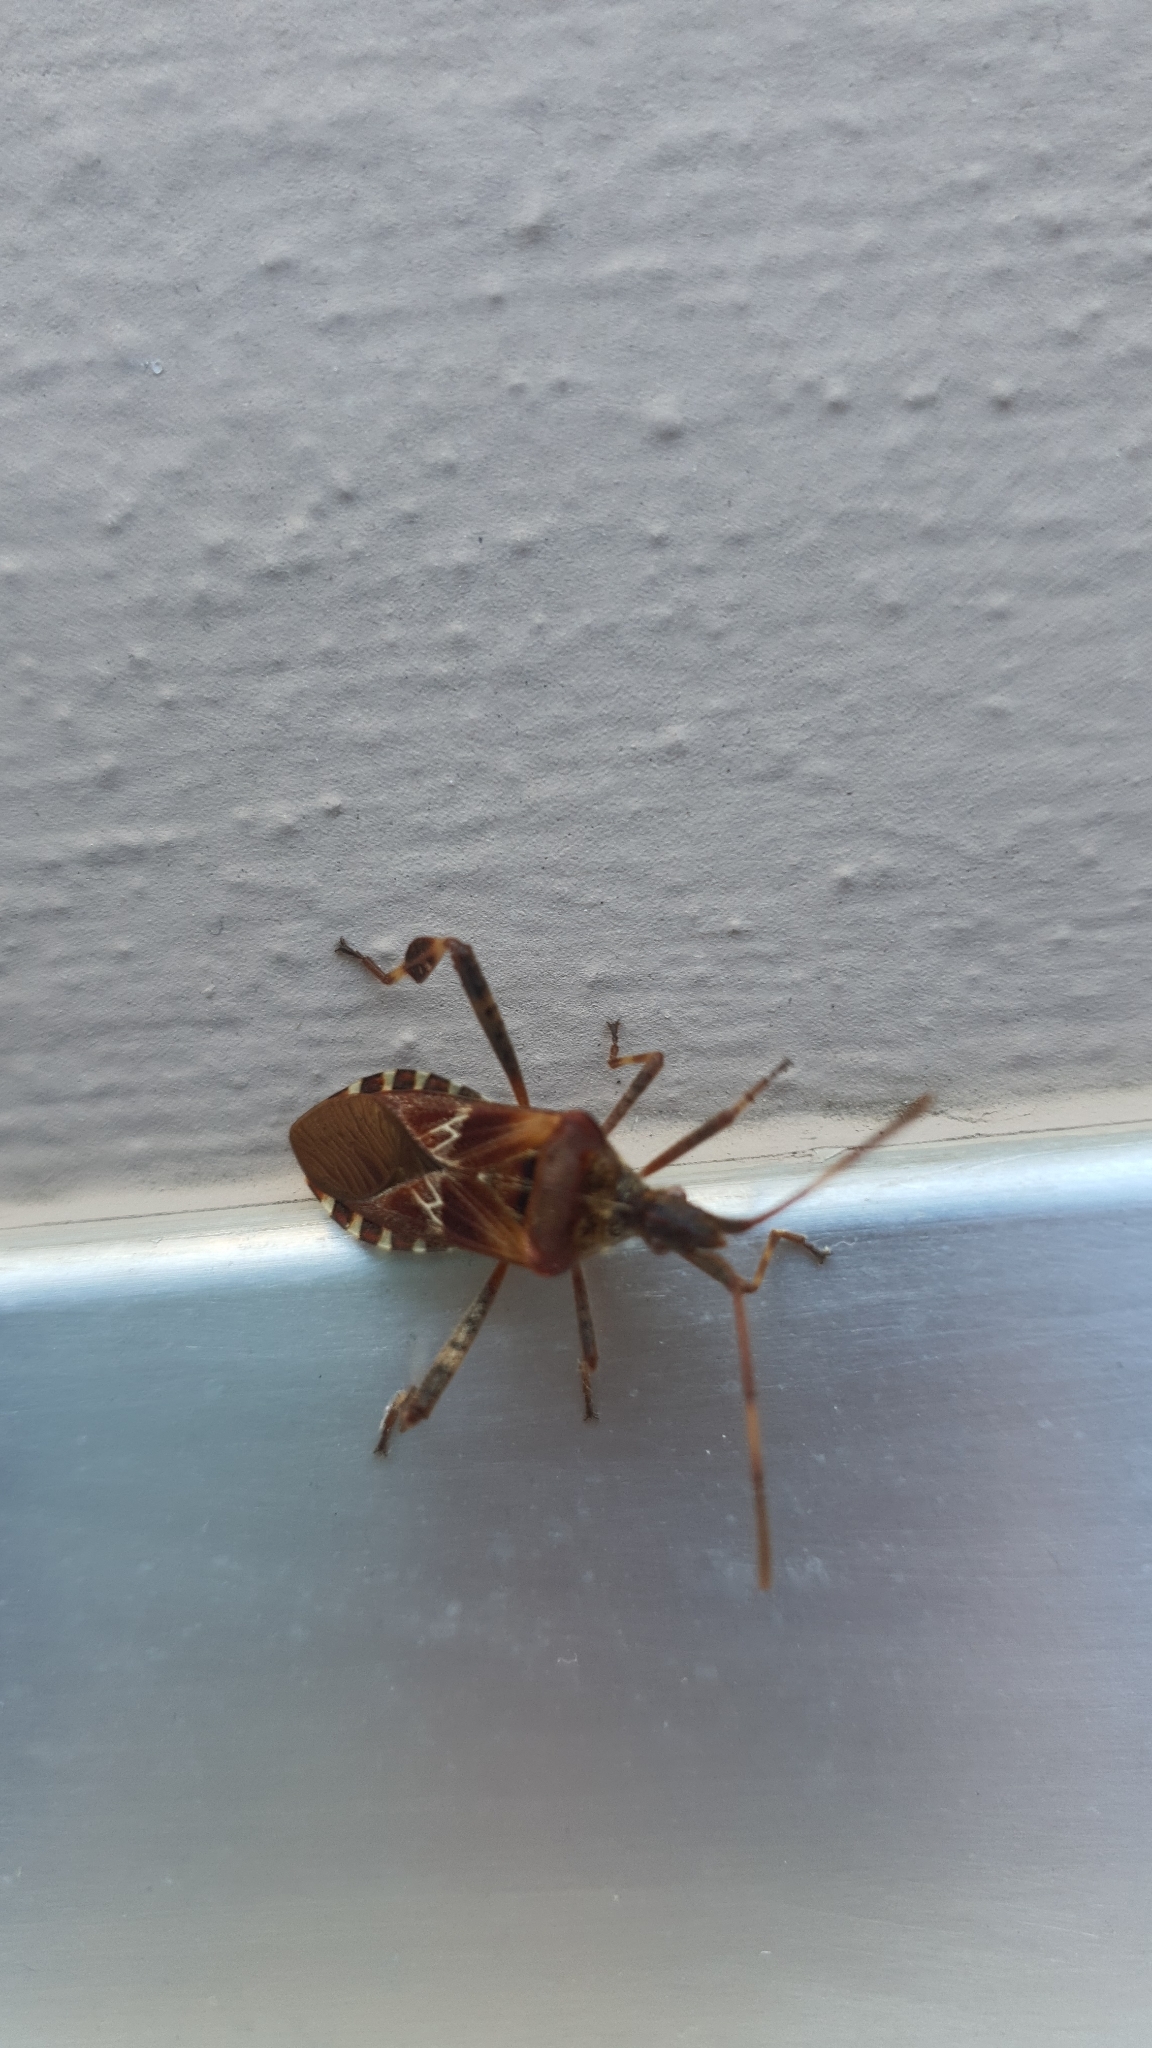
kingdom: Animalia
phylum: Arthropoda
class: Insecta
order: Hemiptera
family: Coreidae
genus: Leptoglossus
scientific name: Leptoglossus occidentalis
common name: Western conifer-seed bug
